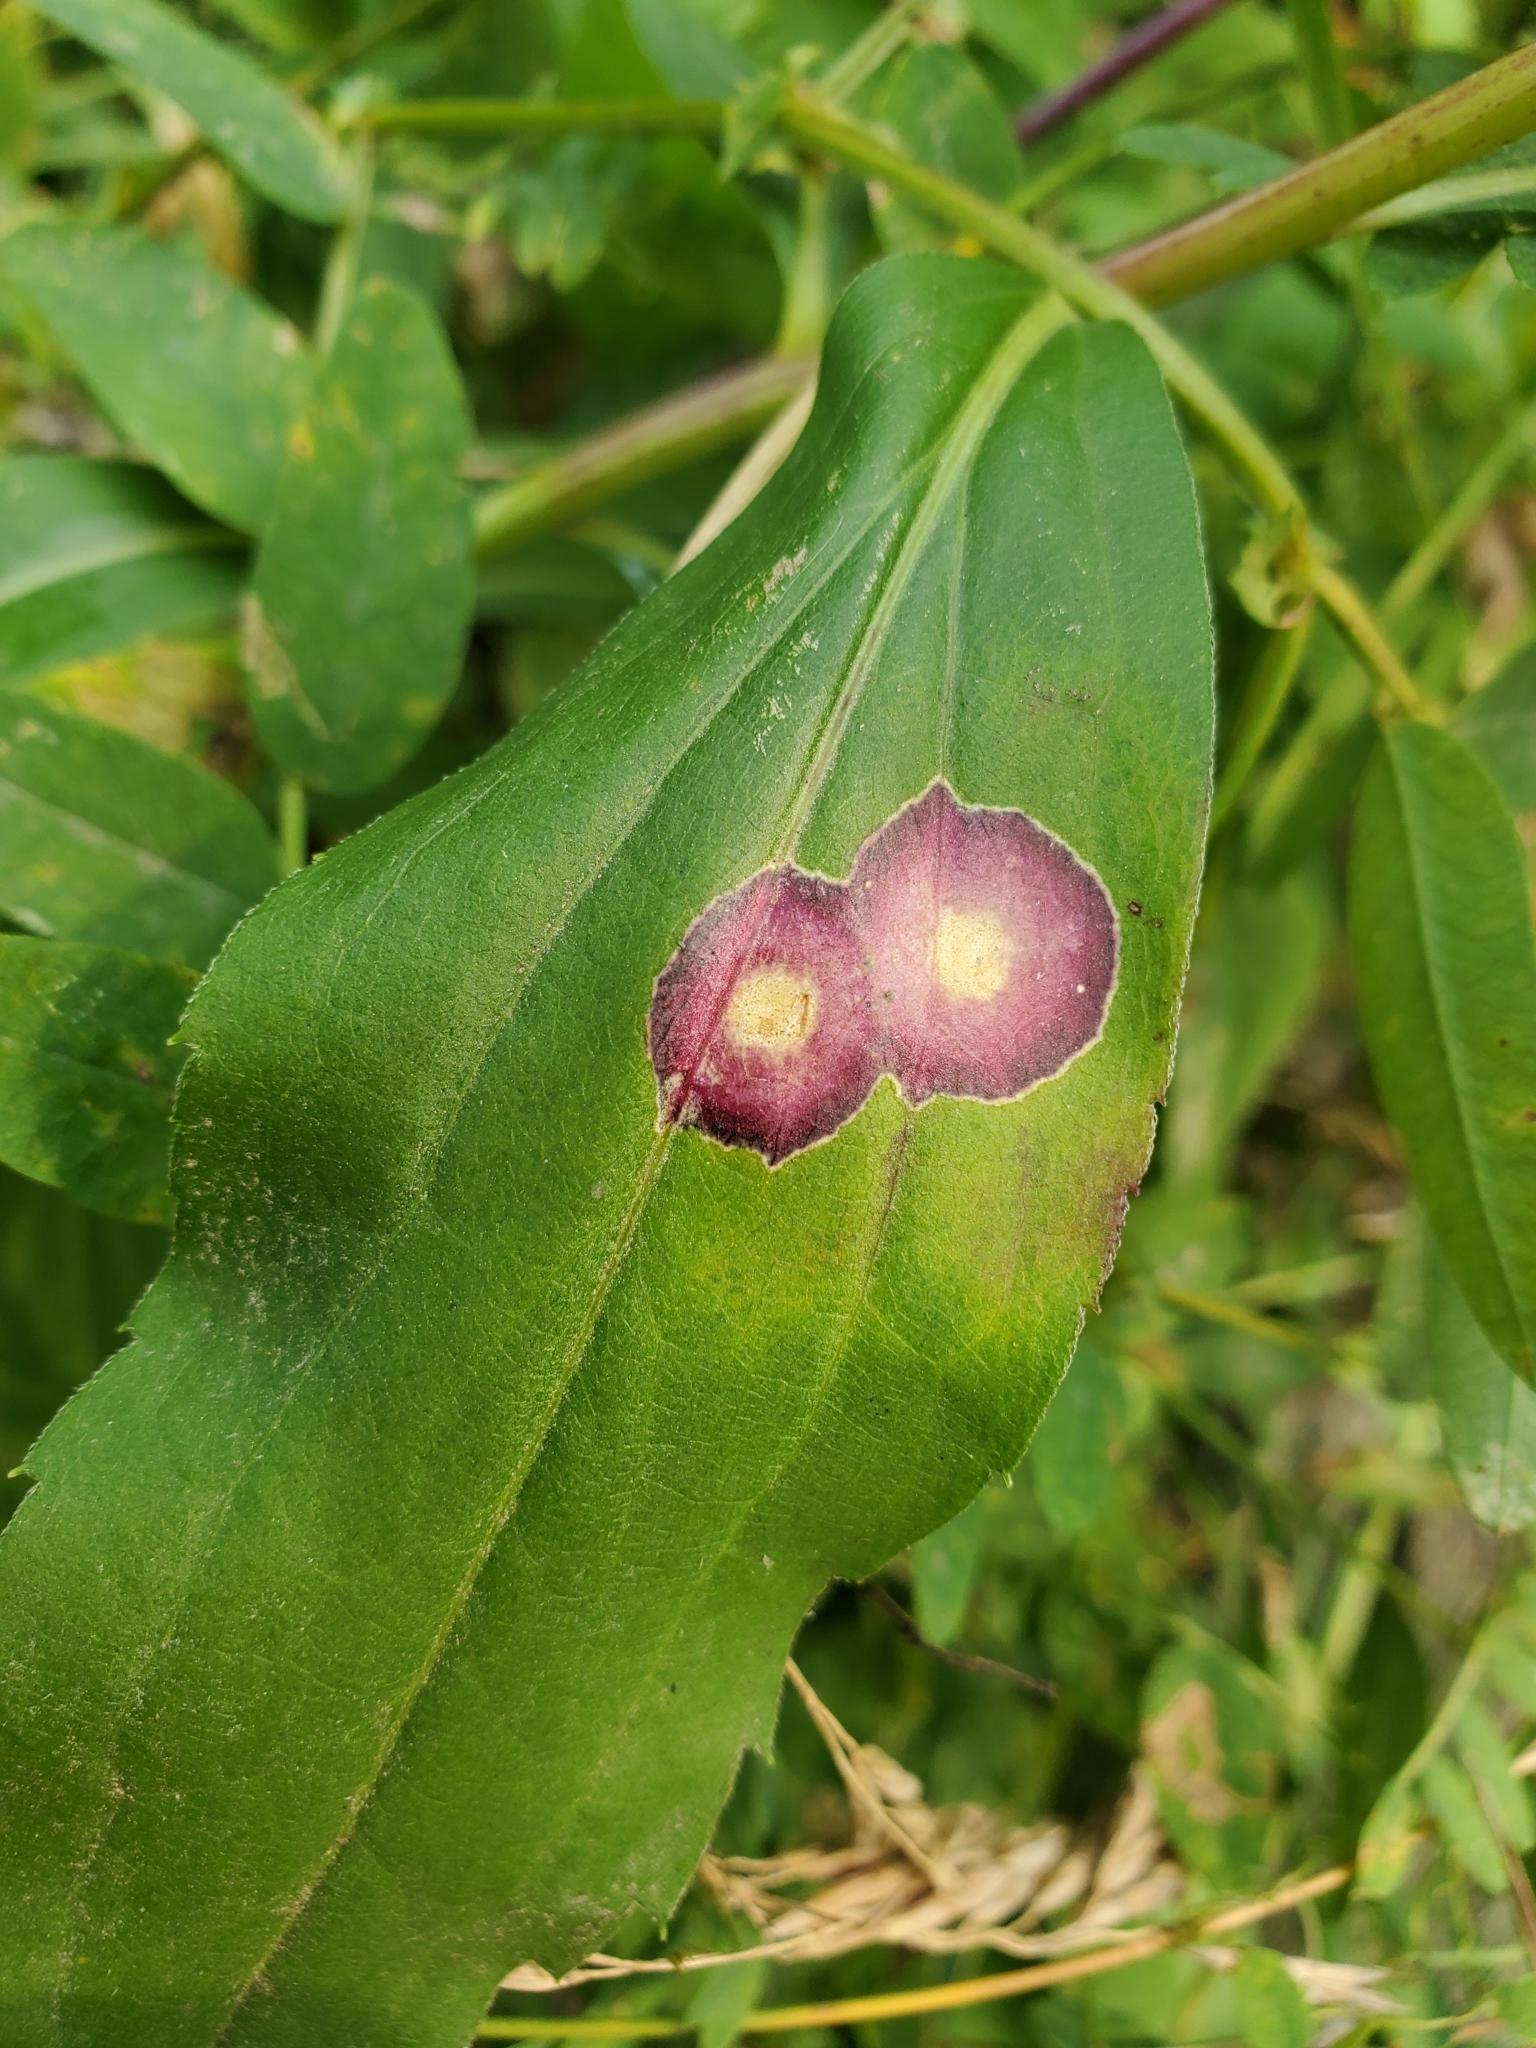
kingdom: Animalia
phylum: Arthropoda
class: Insecta
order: Diptera
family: Cecidomyiidae
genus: Asteromyia
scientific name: Asteromyia carbonifera
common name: Carbonifera goldenrod gall midge
